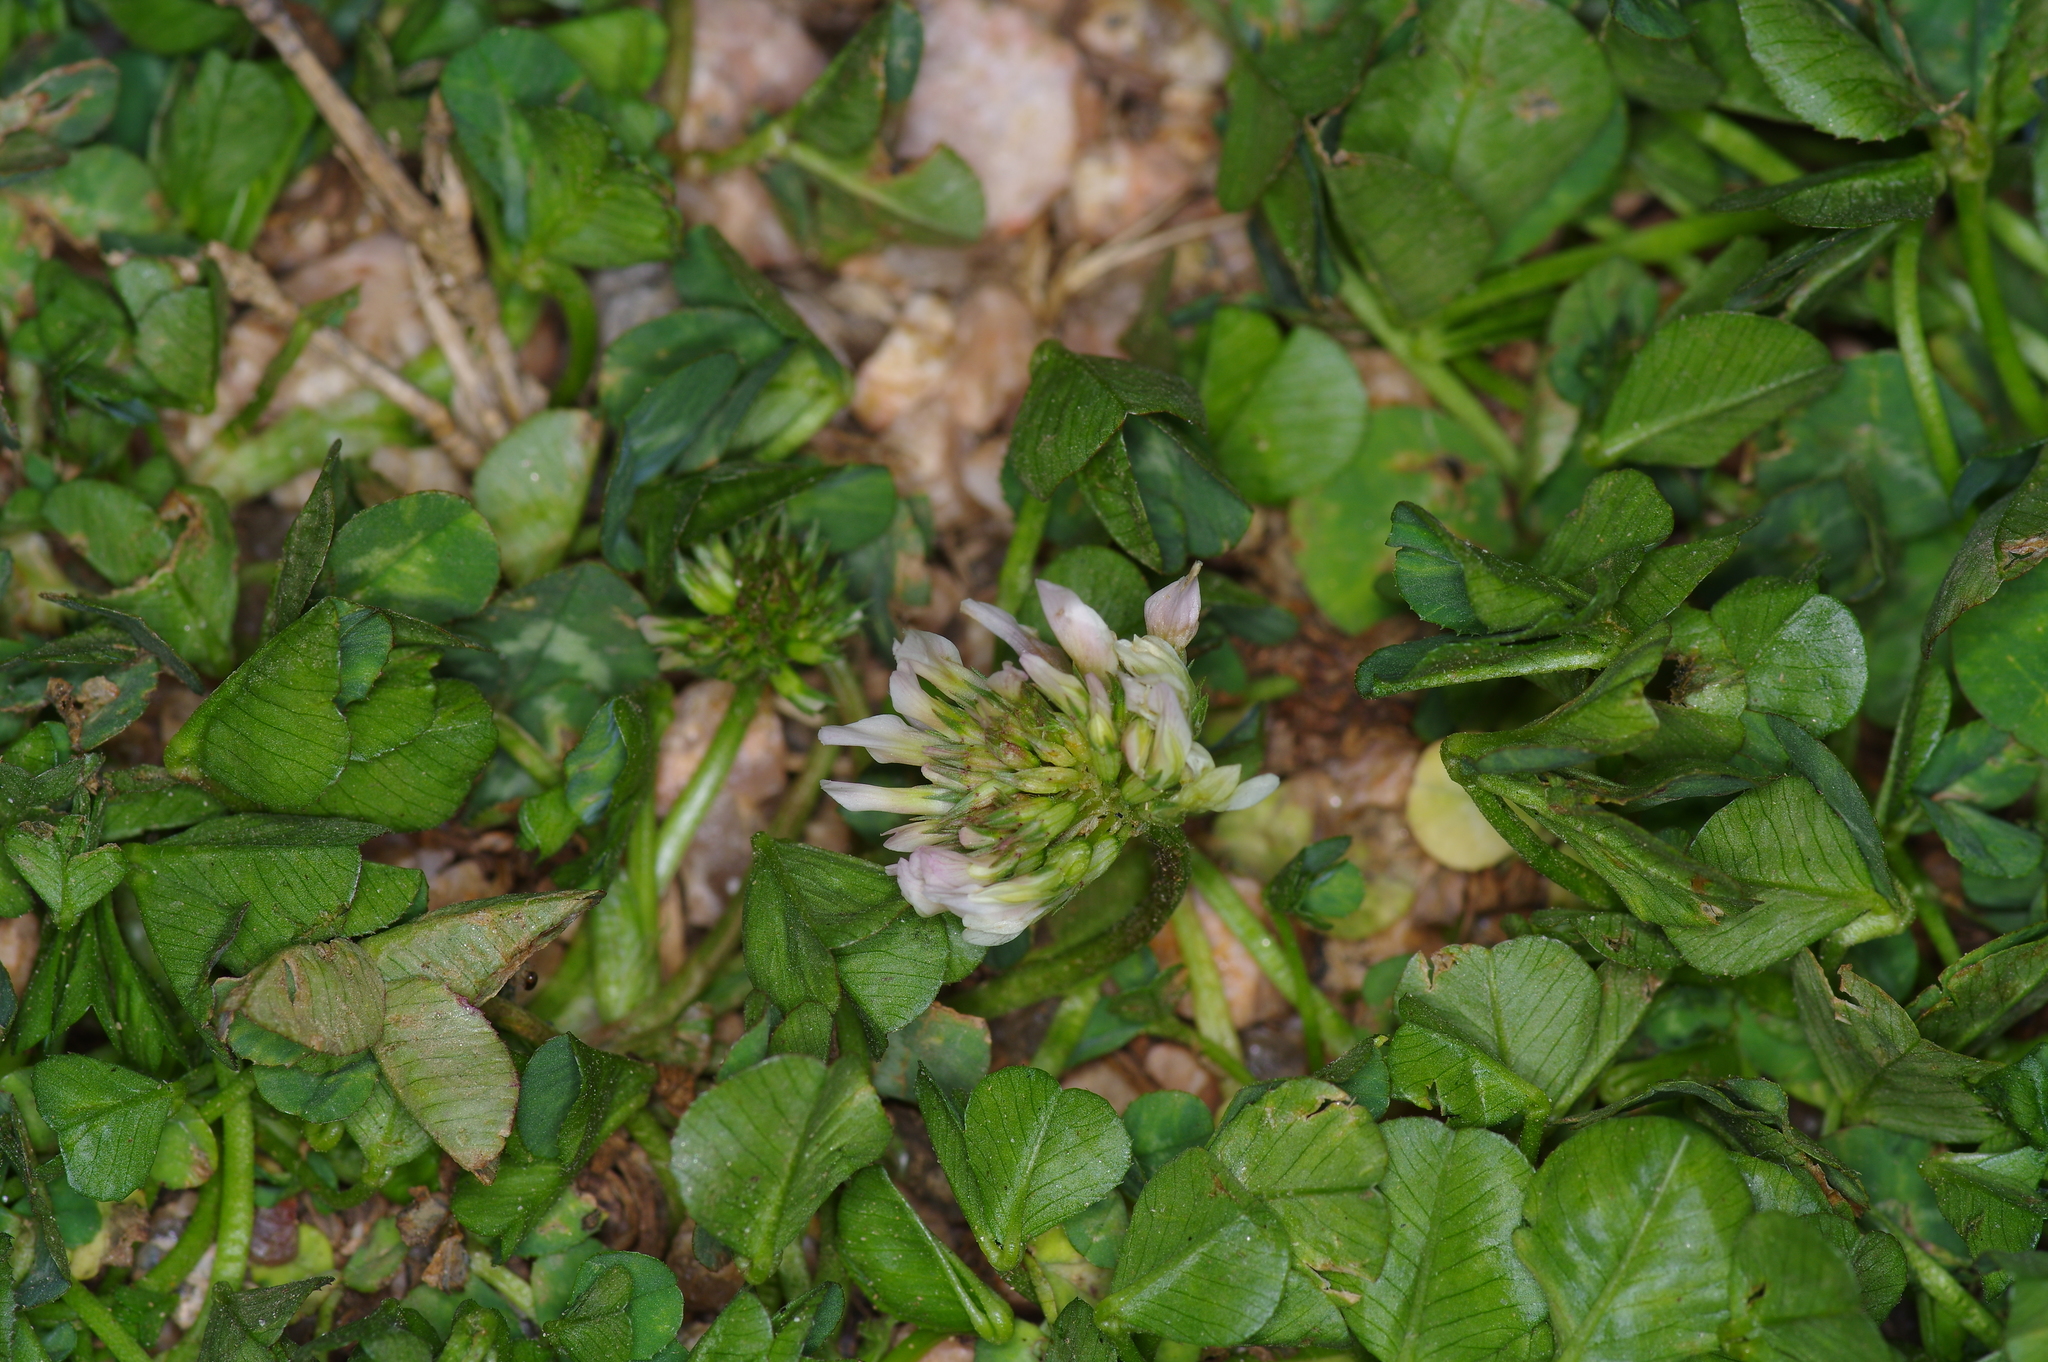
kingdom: Plantae
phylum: Tracheophyta
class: Magnoliopsida
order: Fabales
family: Fabaceae
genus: Trifolium
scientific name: Trifolium repens
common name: White clover
